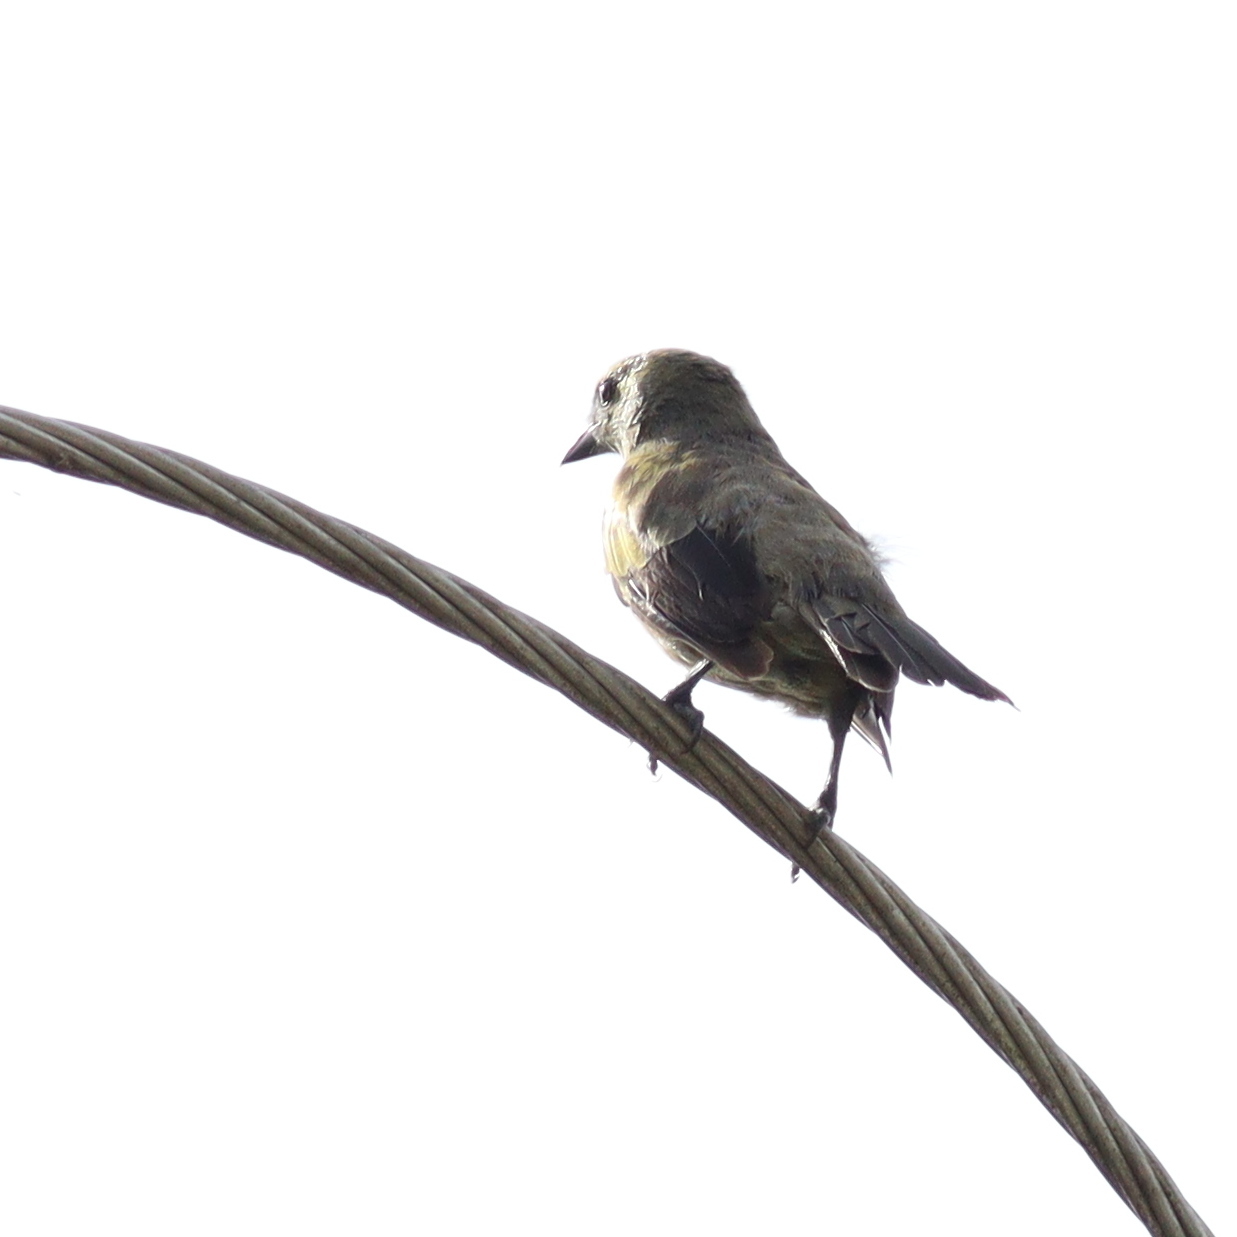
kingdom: Animalia
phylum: Chordata
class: Aves
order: Passeriformes
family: Thraupidae
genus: Thraupis
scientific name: Thraupis palmarum
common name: Palm tanager
